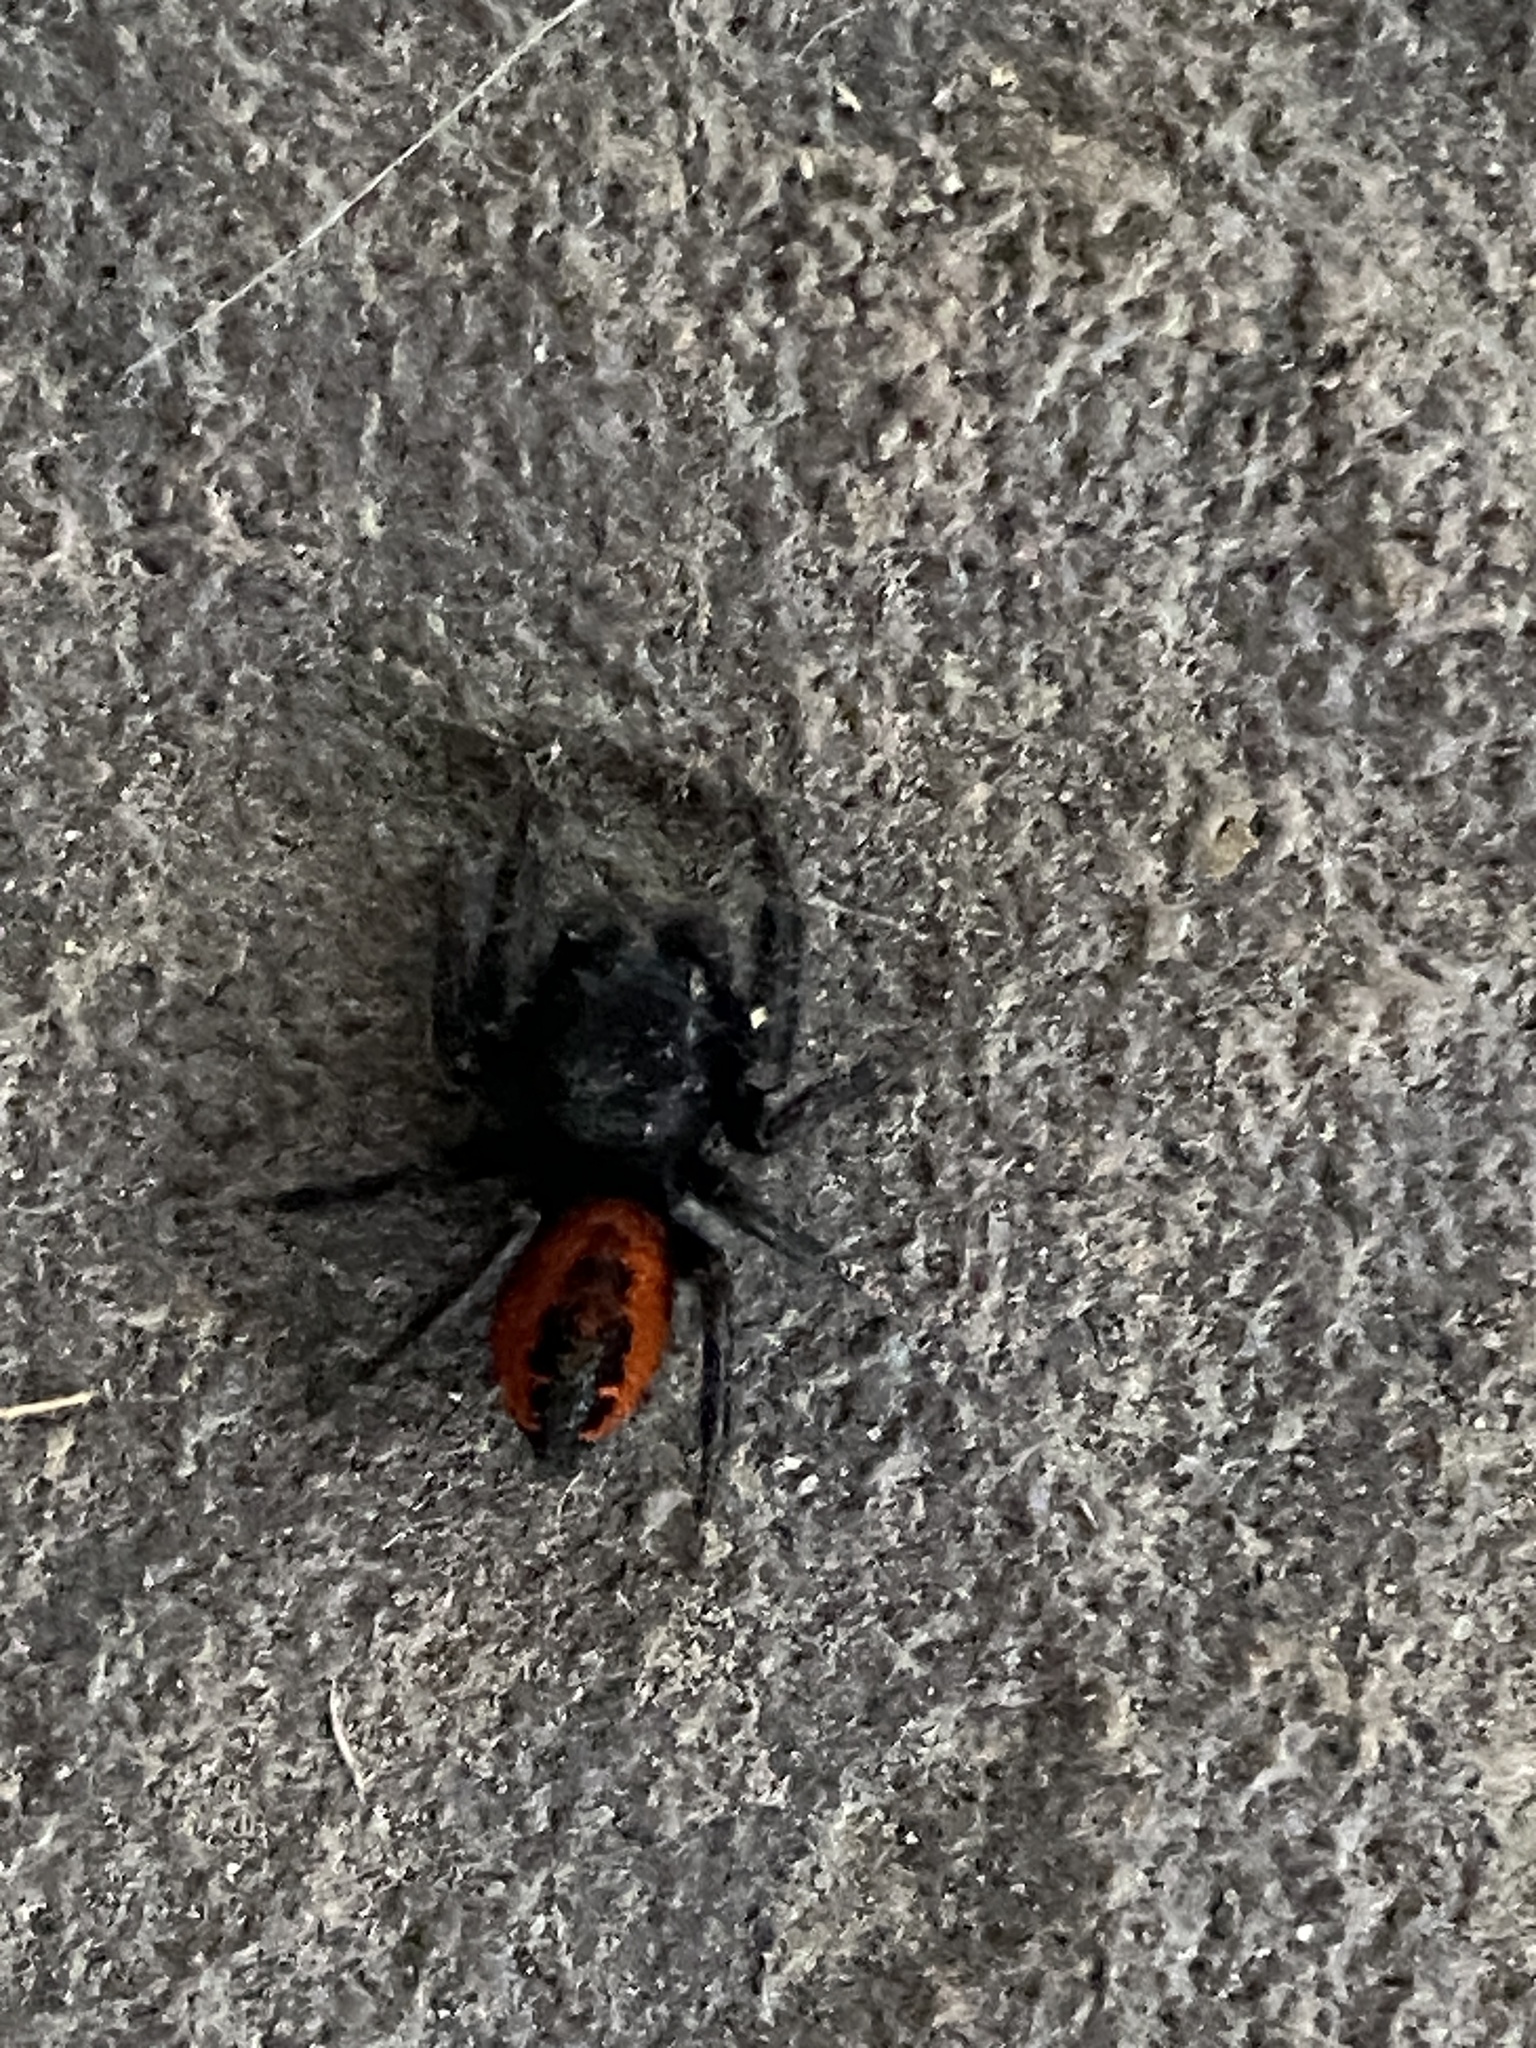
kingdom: Animalia
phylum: Arthropoda
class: Arachnida
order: Araneae
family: Salticidae
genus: Phidippus
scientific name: Phidippus johnsoni
